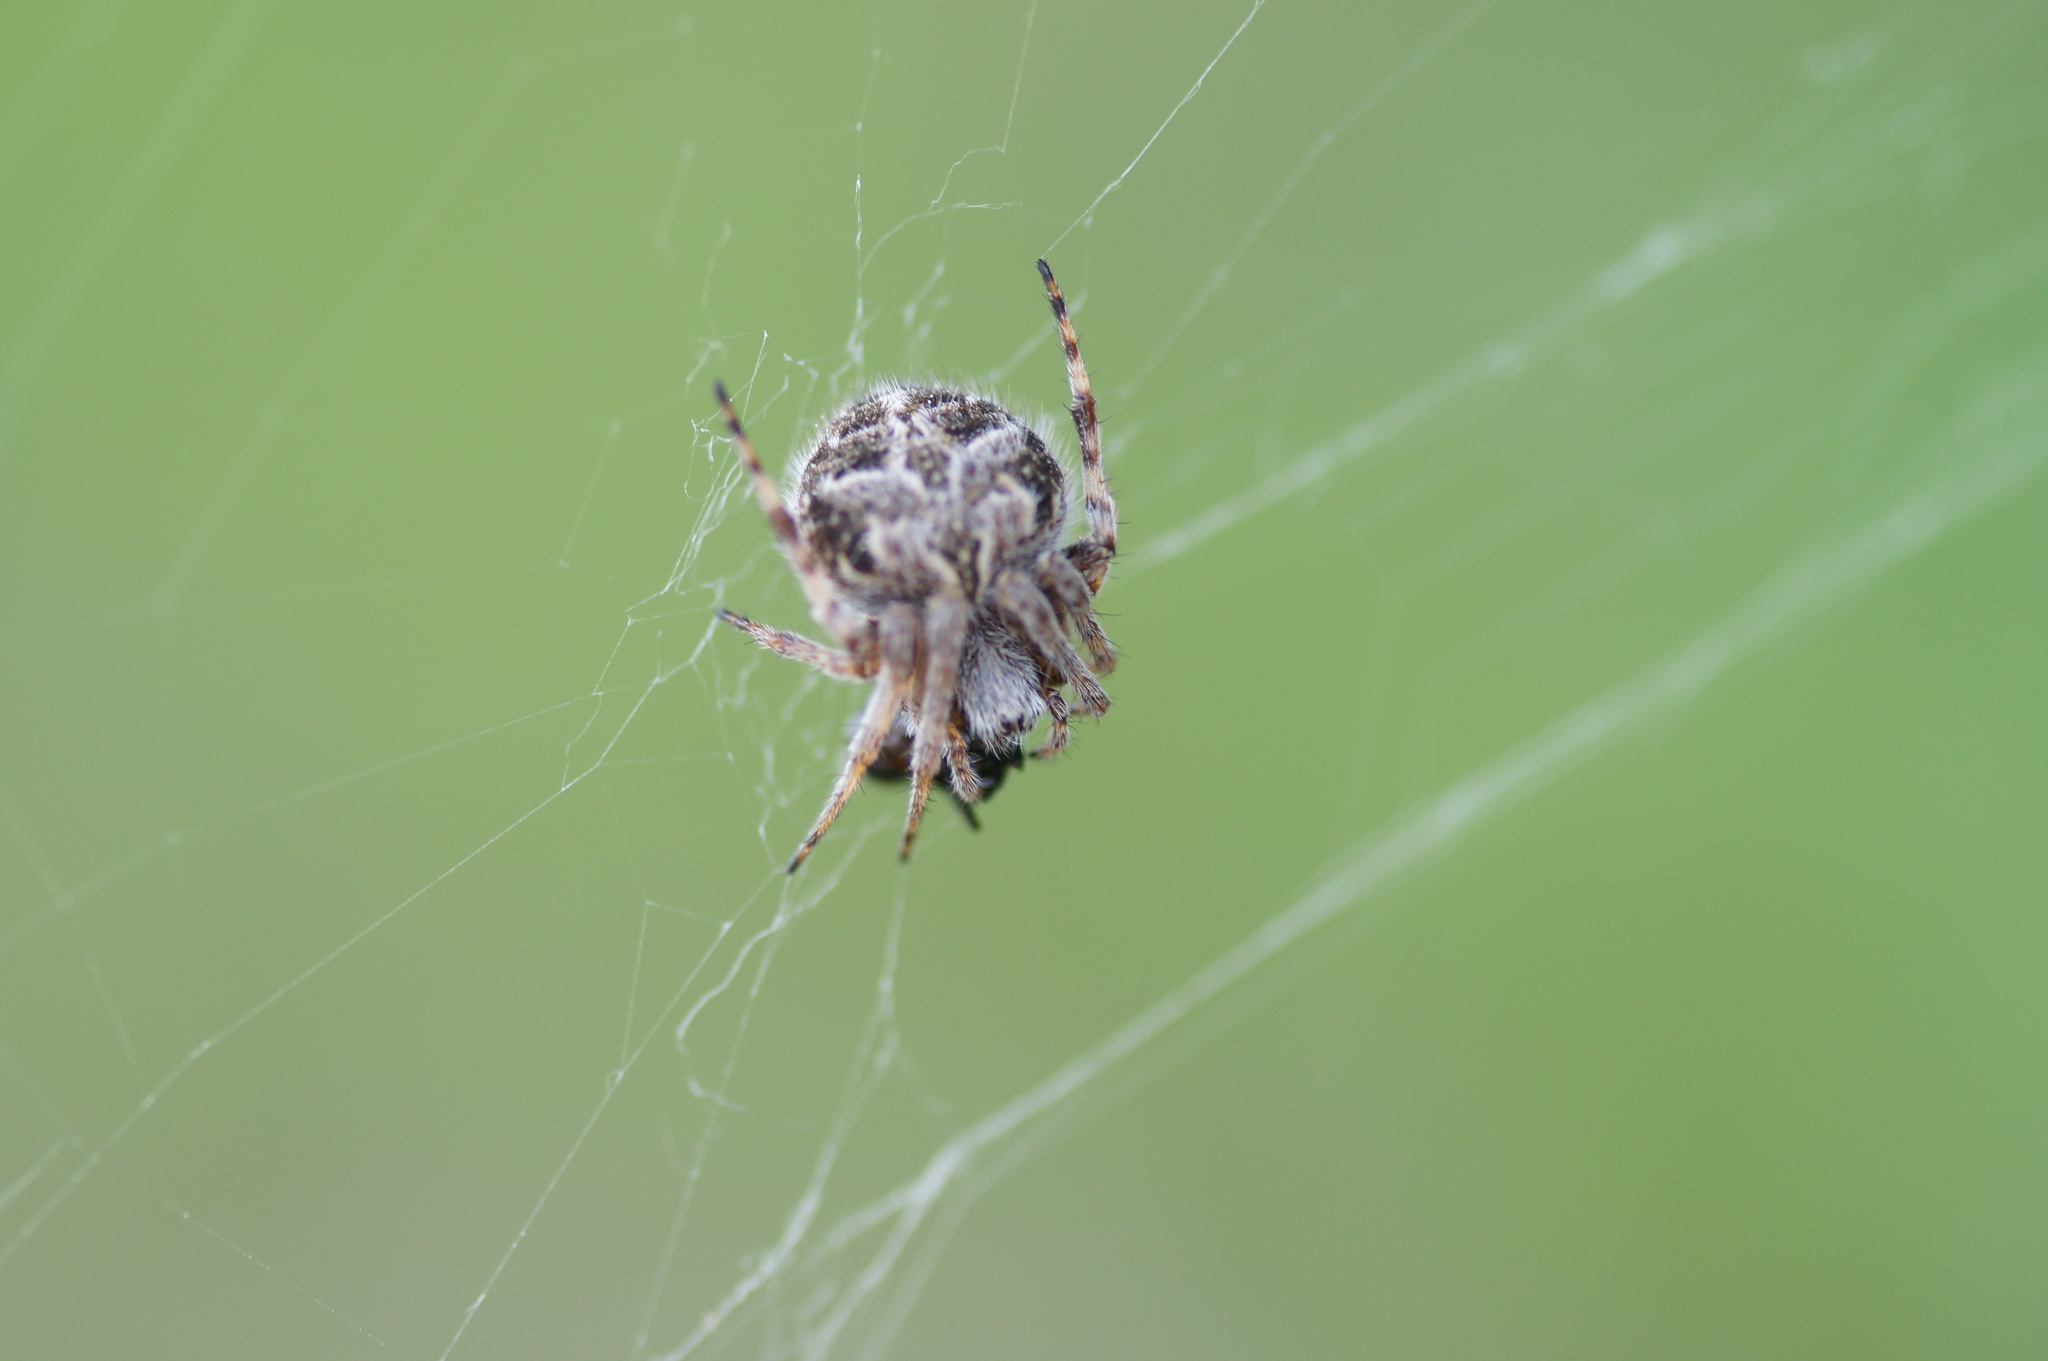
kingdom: Animalia
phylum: Arthropoda
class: Arachnida
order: Araneae
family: Araneidae
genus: Agalenatea
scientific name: Agalenatea redii
